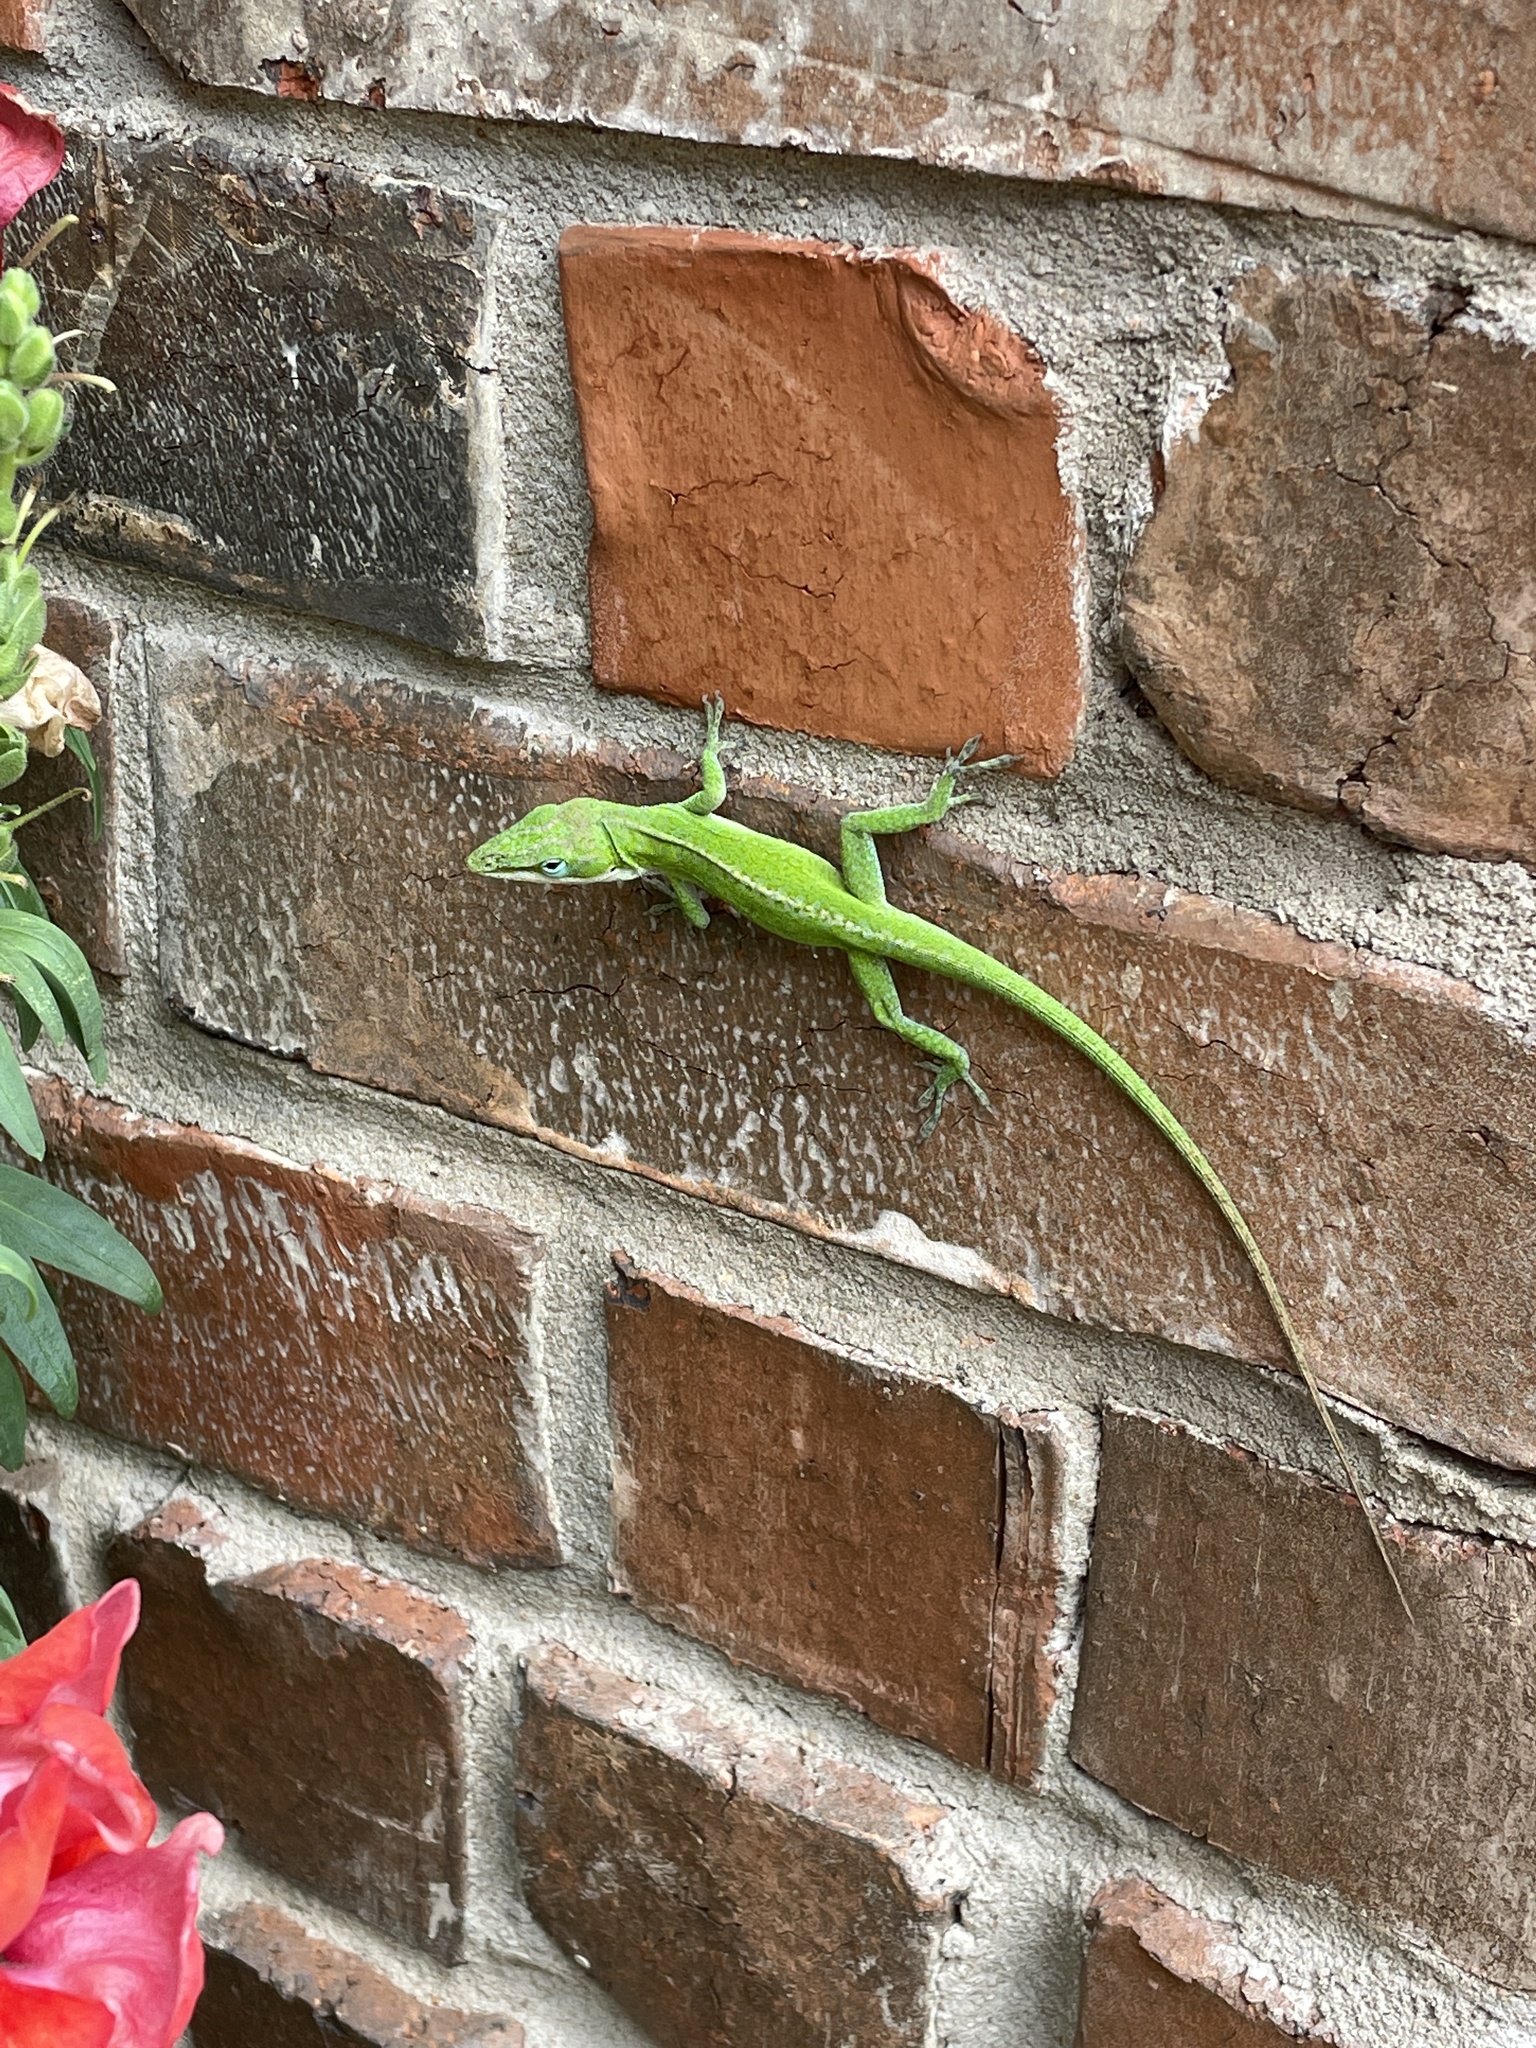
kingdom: Animalia
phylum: Chordata
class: Squamata
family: Dactyloidae
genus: Anolis
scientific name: Anolis carolinensis
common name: Green anole
